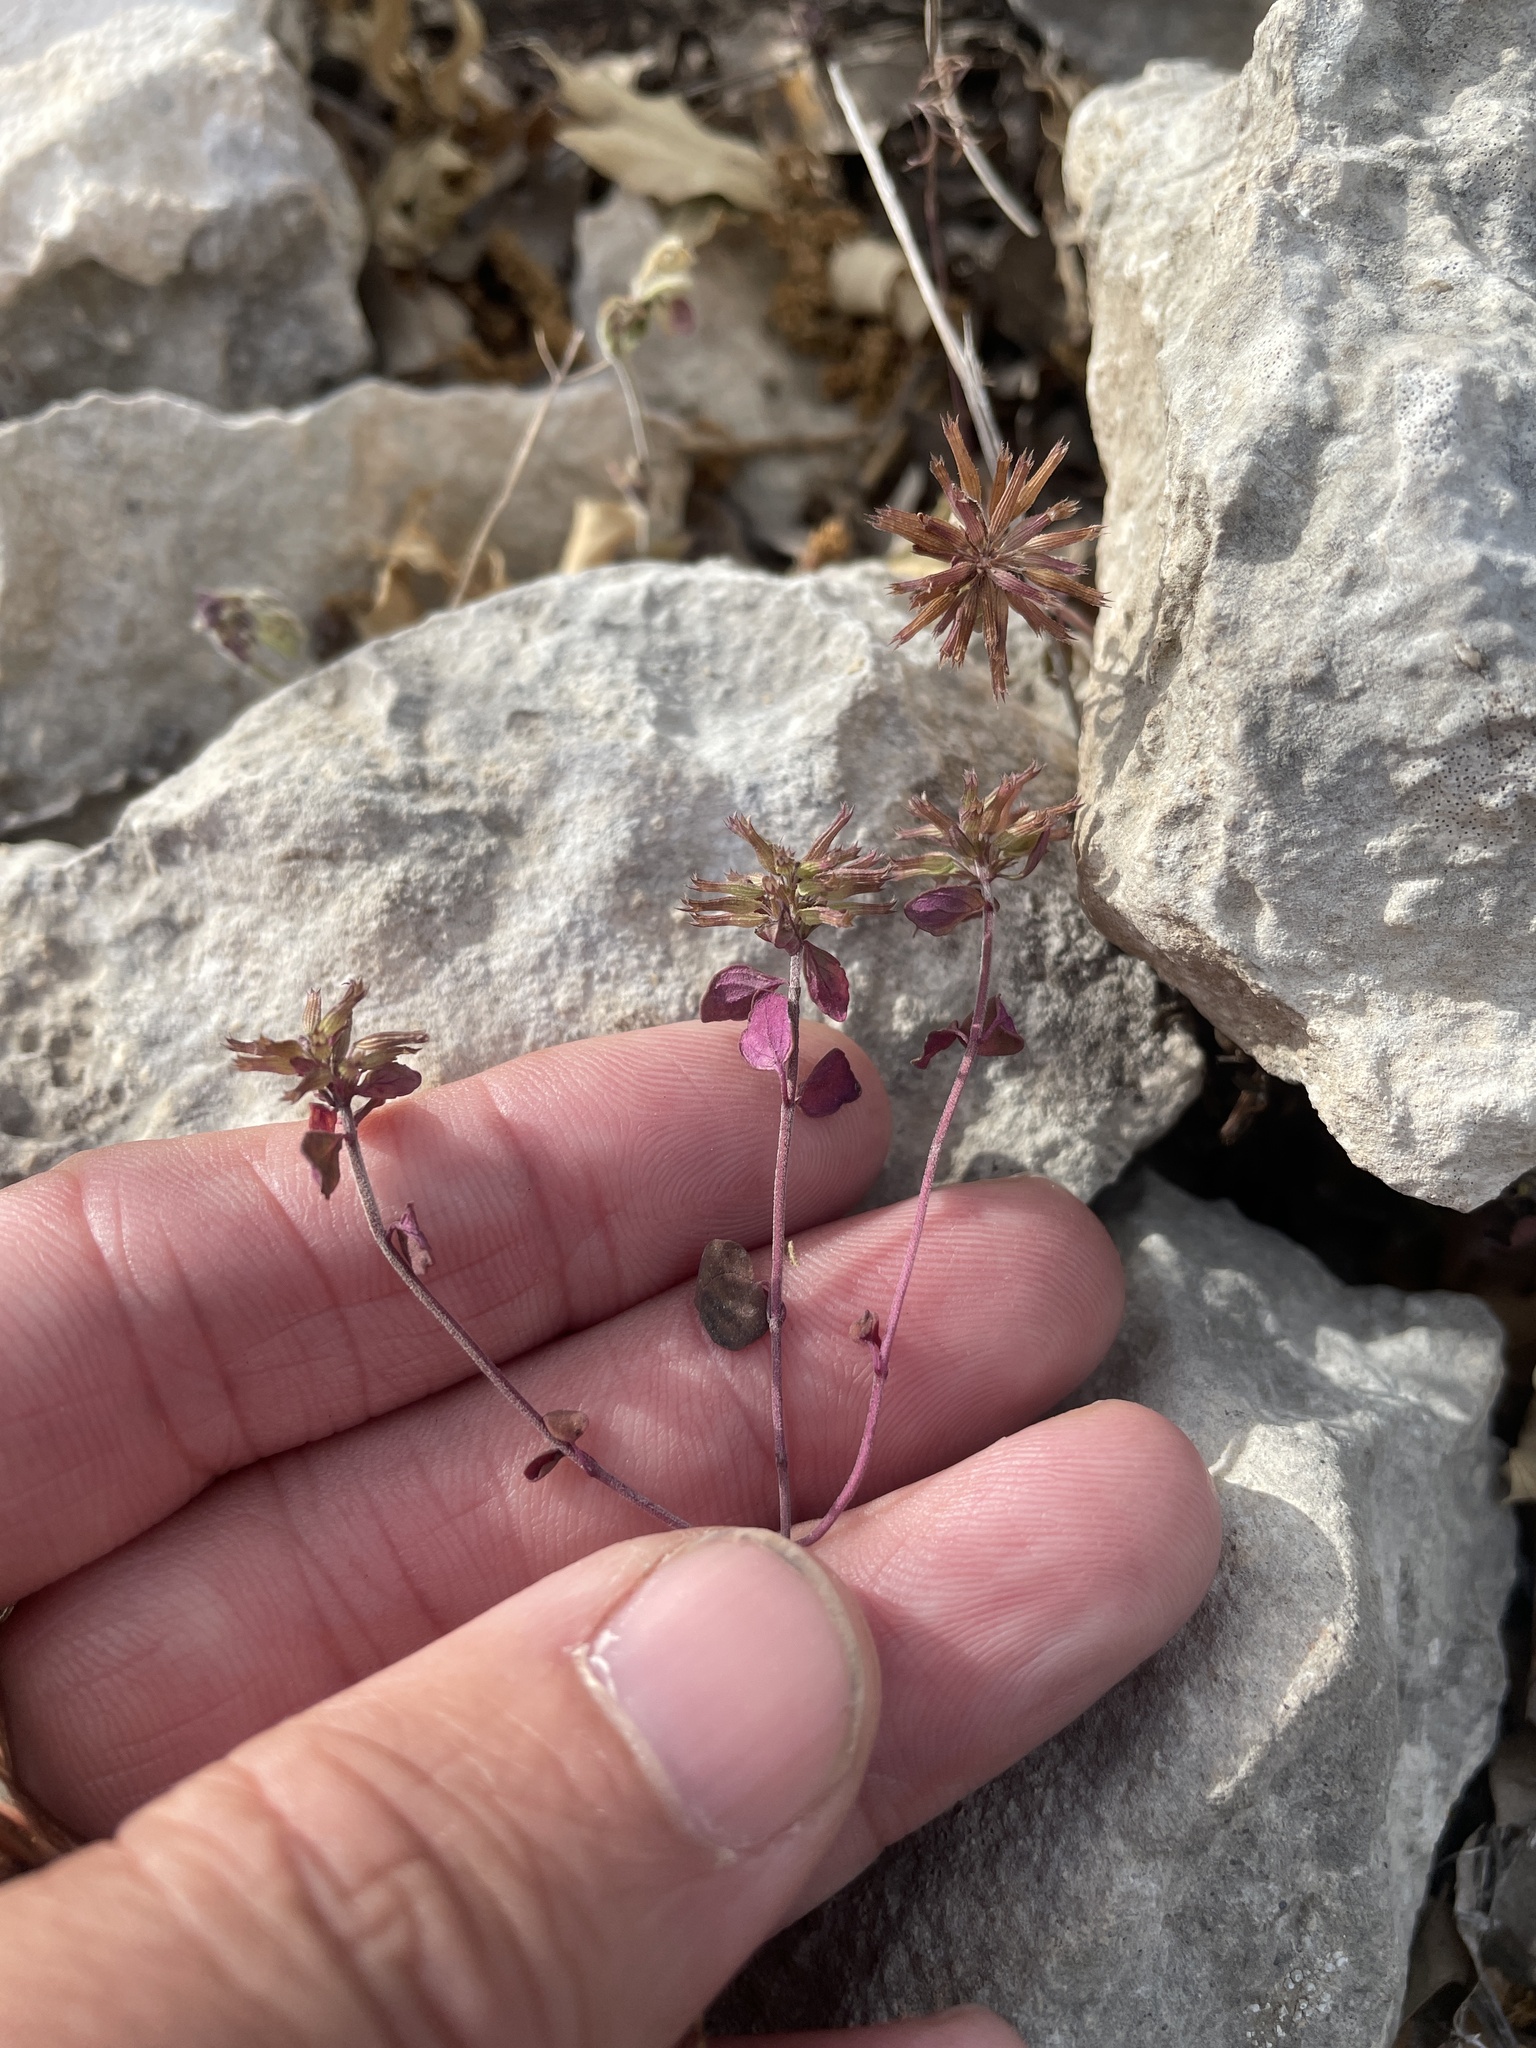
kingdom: Plantae
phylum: Tracheophyta
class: Magnoliopsida
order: Lamiales
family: Lamiaceae
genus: Hedeoma
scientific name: Hedeoma acinoides
